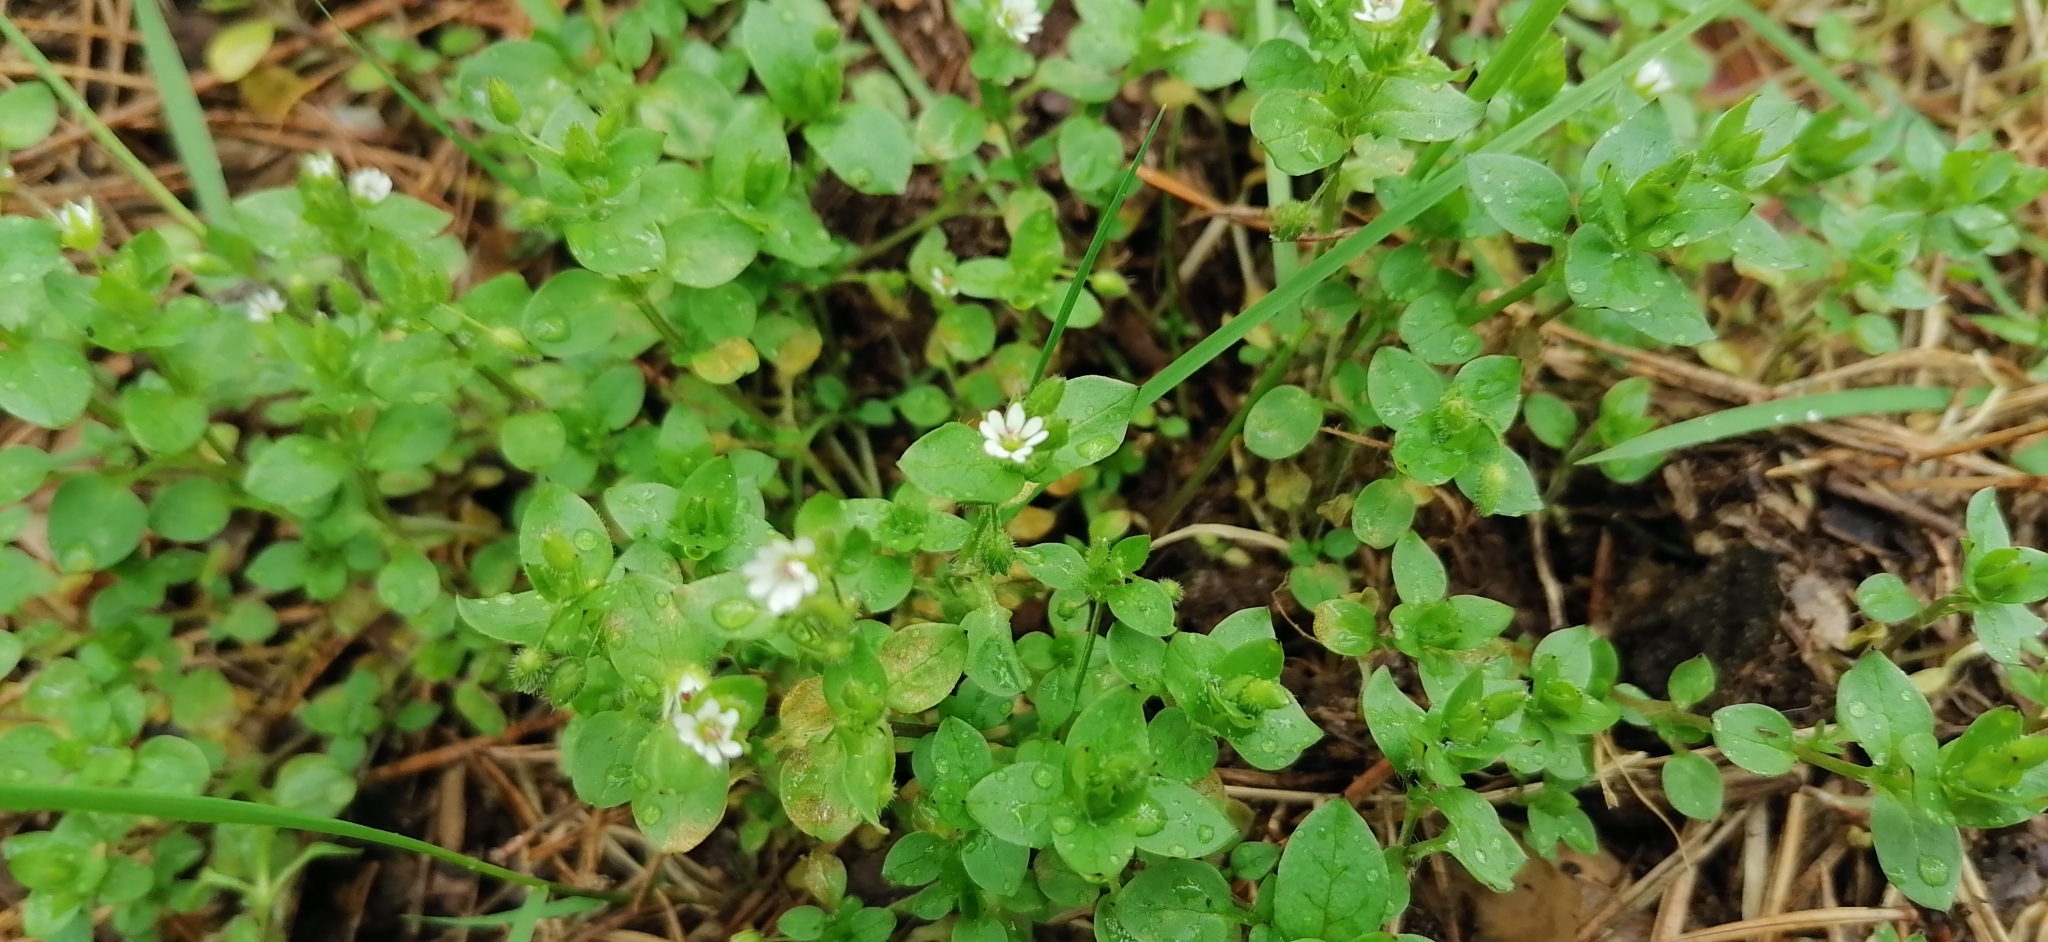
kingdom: Plantae
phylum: Tracheophyta
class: Magnoliopsida
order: Caryophyllales
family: Caryophyllaceae
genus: Stellaria
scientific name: Stellaria media
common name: Common chickweed
